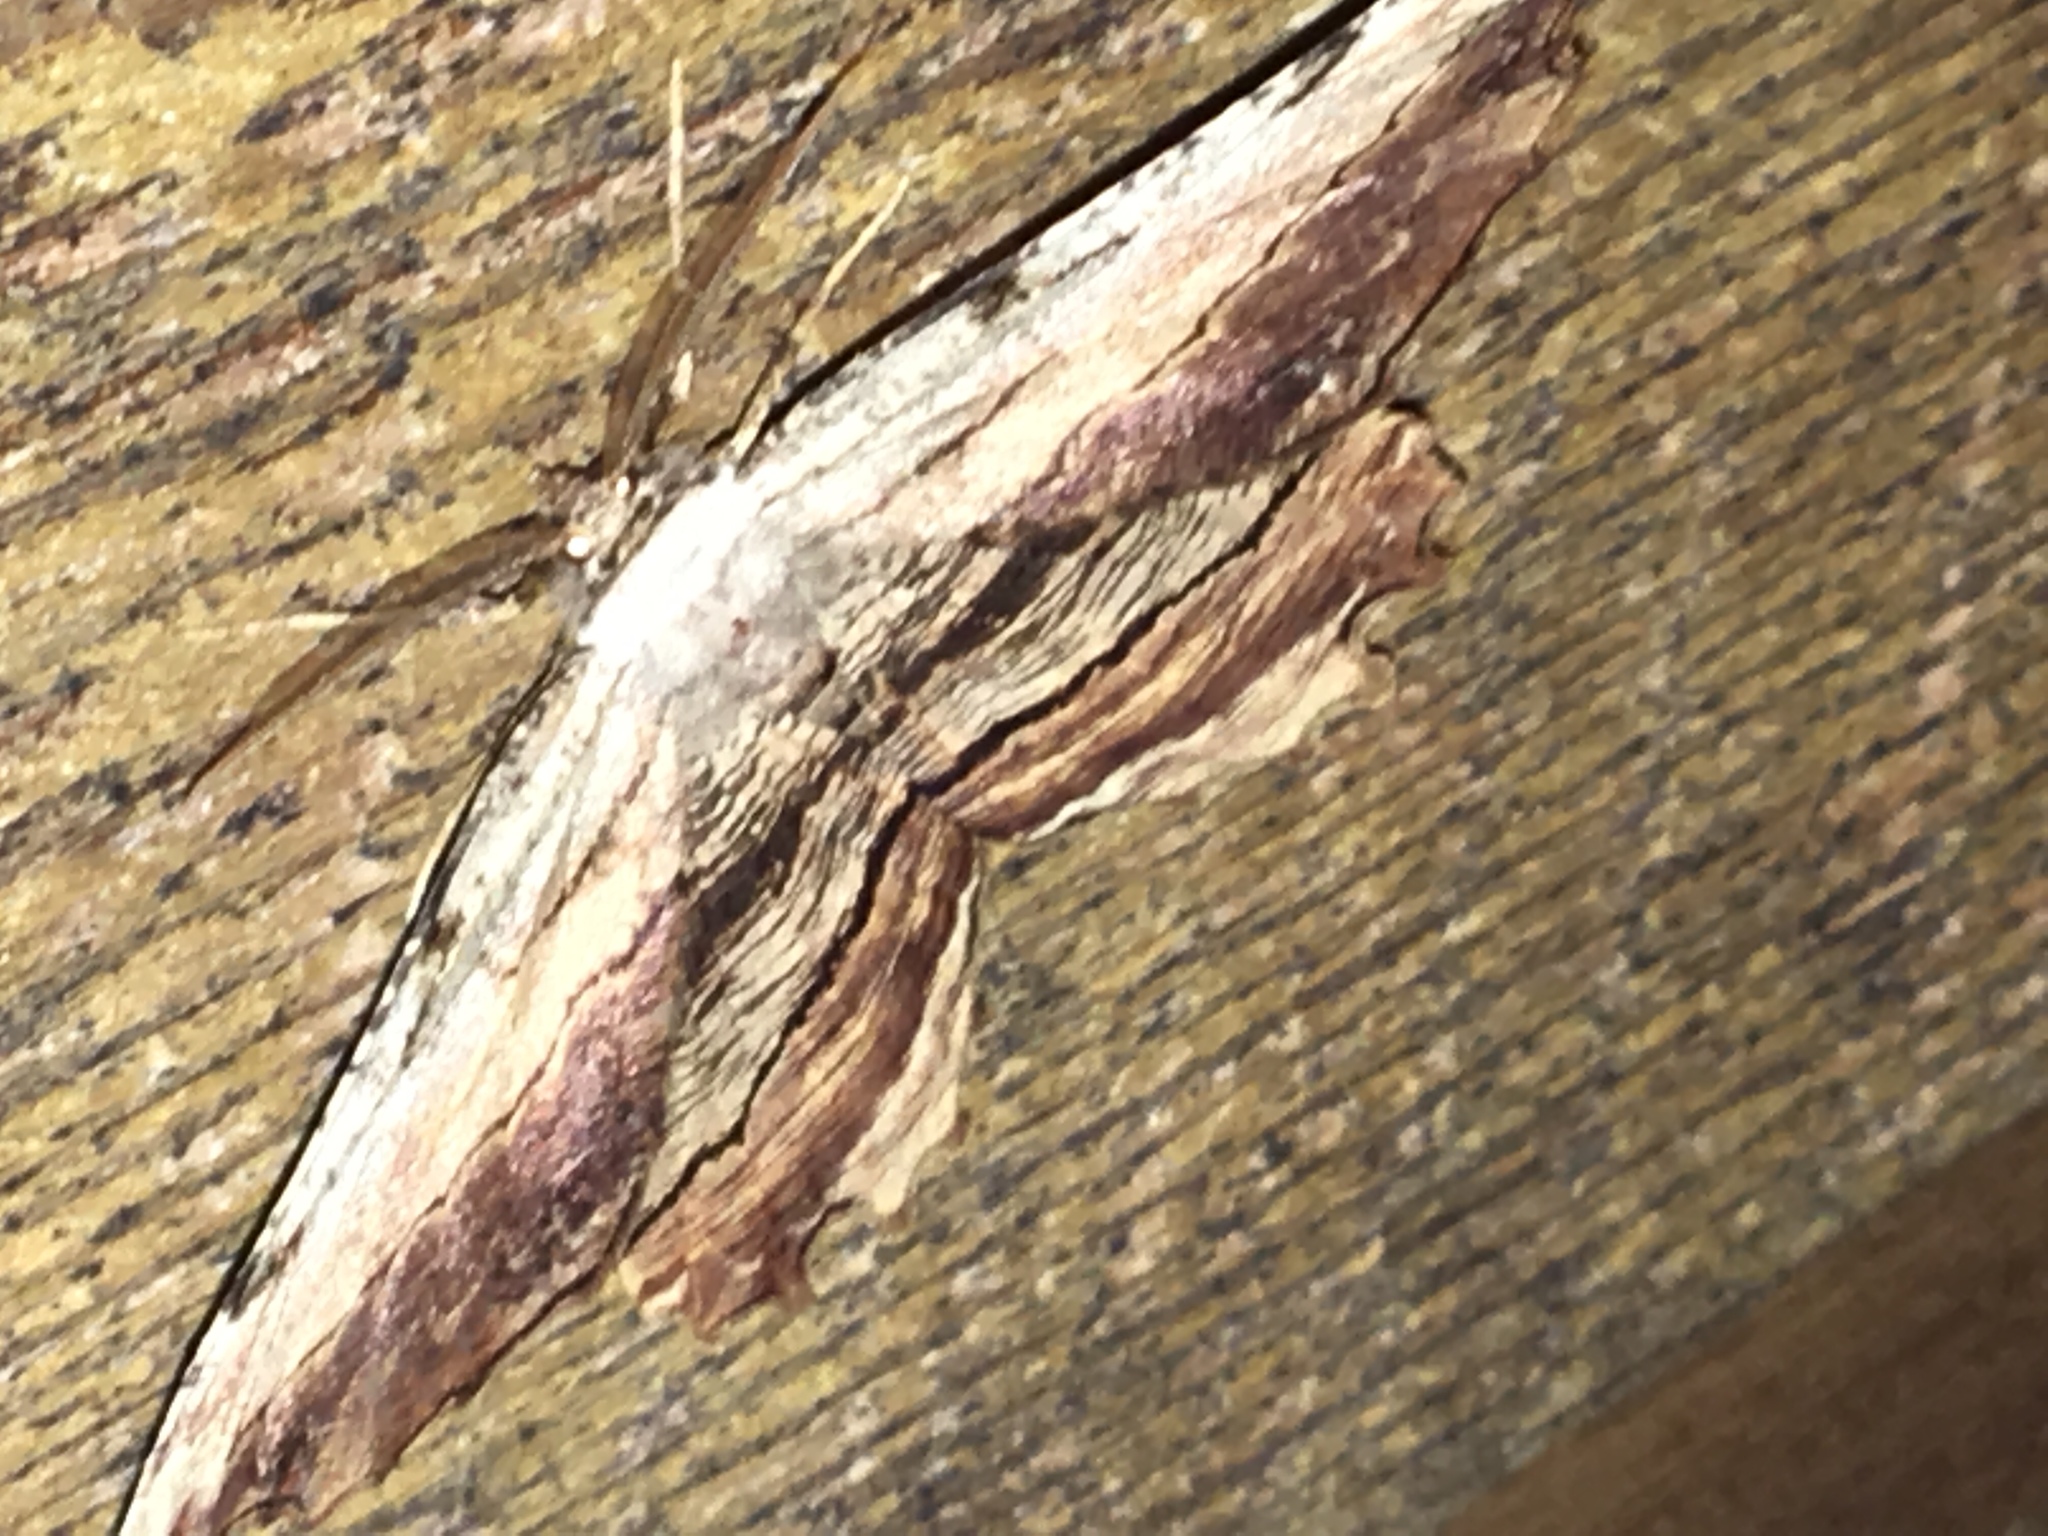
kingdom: Animalia
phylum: Arthropoda
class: Insecta
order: Lepidoptera
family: Geometridae
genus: Lytrosis
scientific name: Lytrosis unitaria
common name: Common lytrosis
